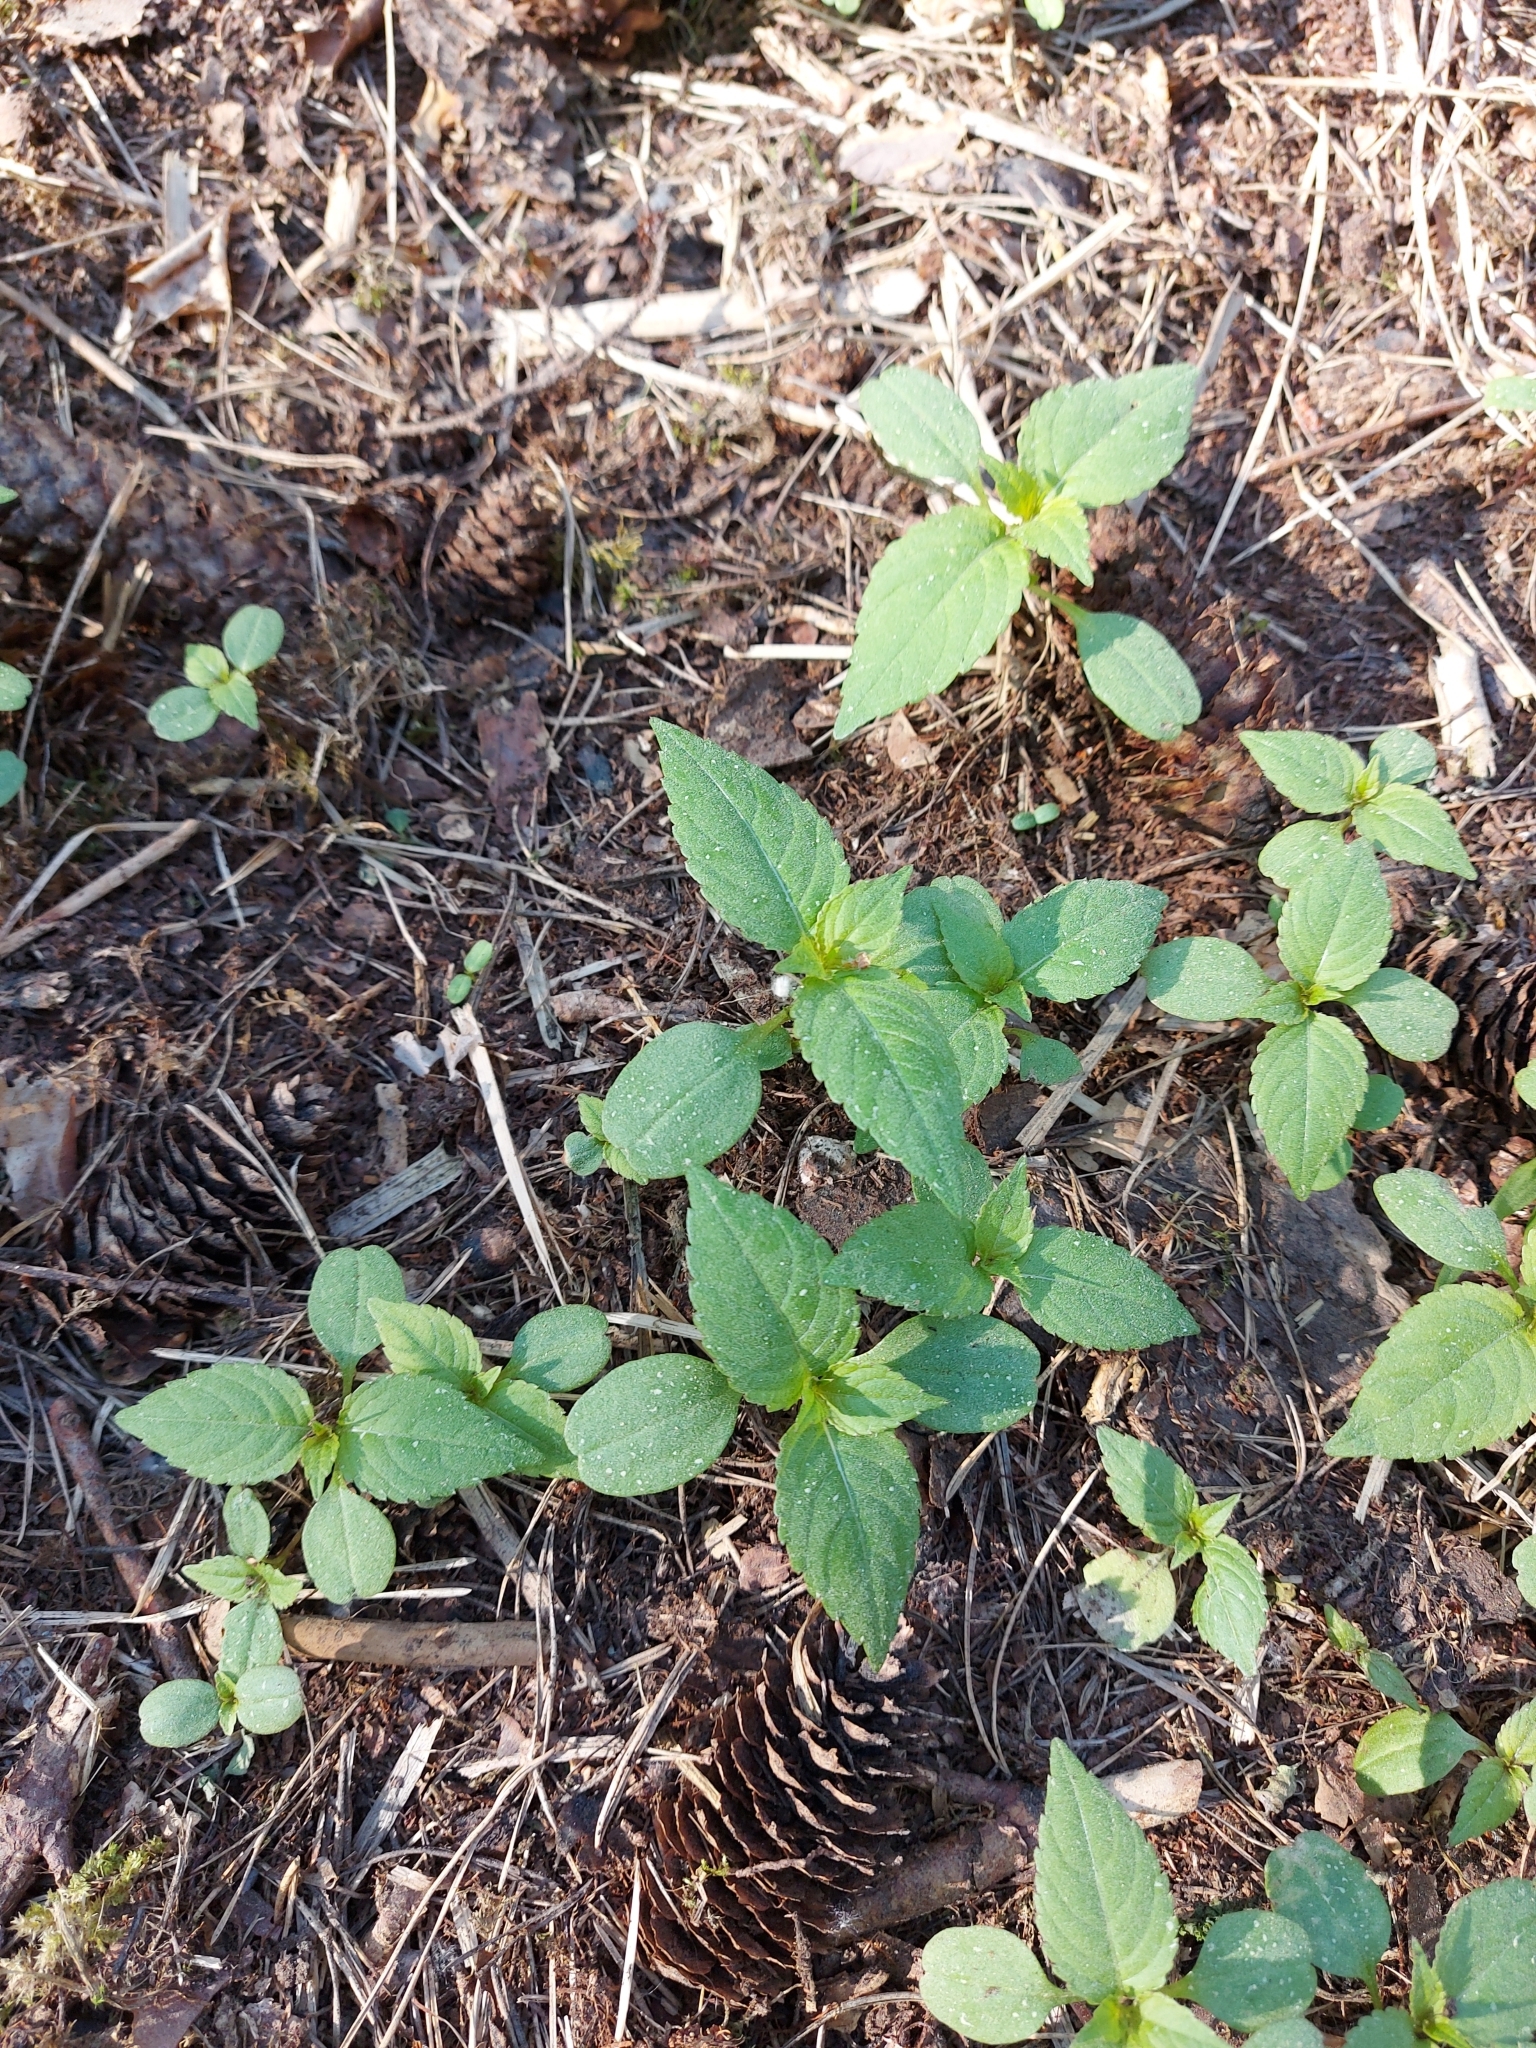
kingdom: Plantae
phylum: Tracheophyta
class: Magnoliopsida
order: Ericales
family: Balsaminaceae
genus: Impatiens
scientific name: Impatiens parviflora
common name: Small balsam
